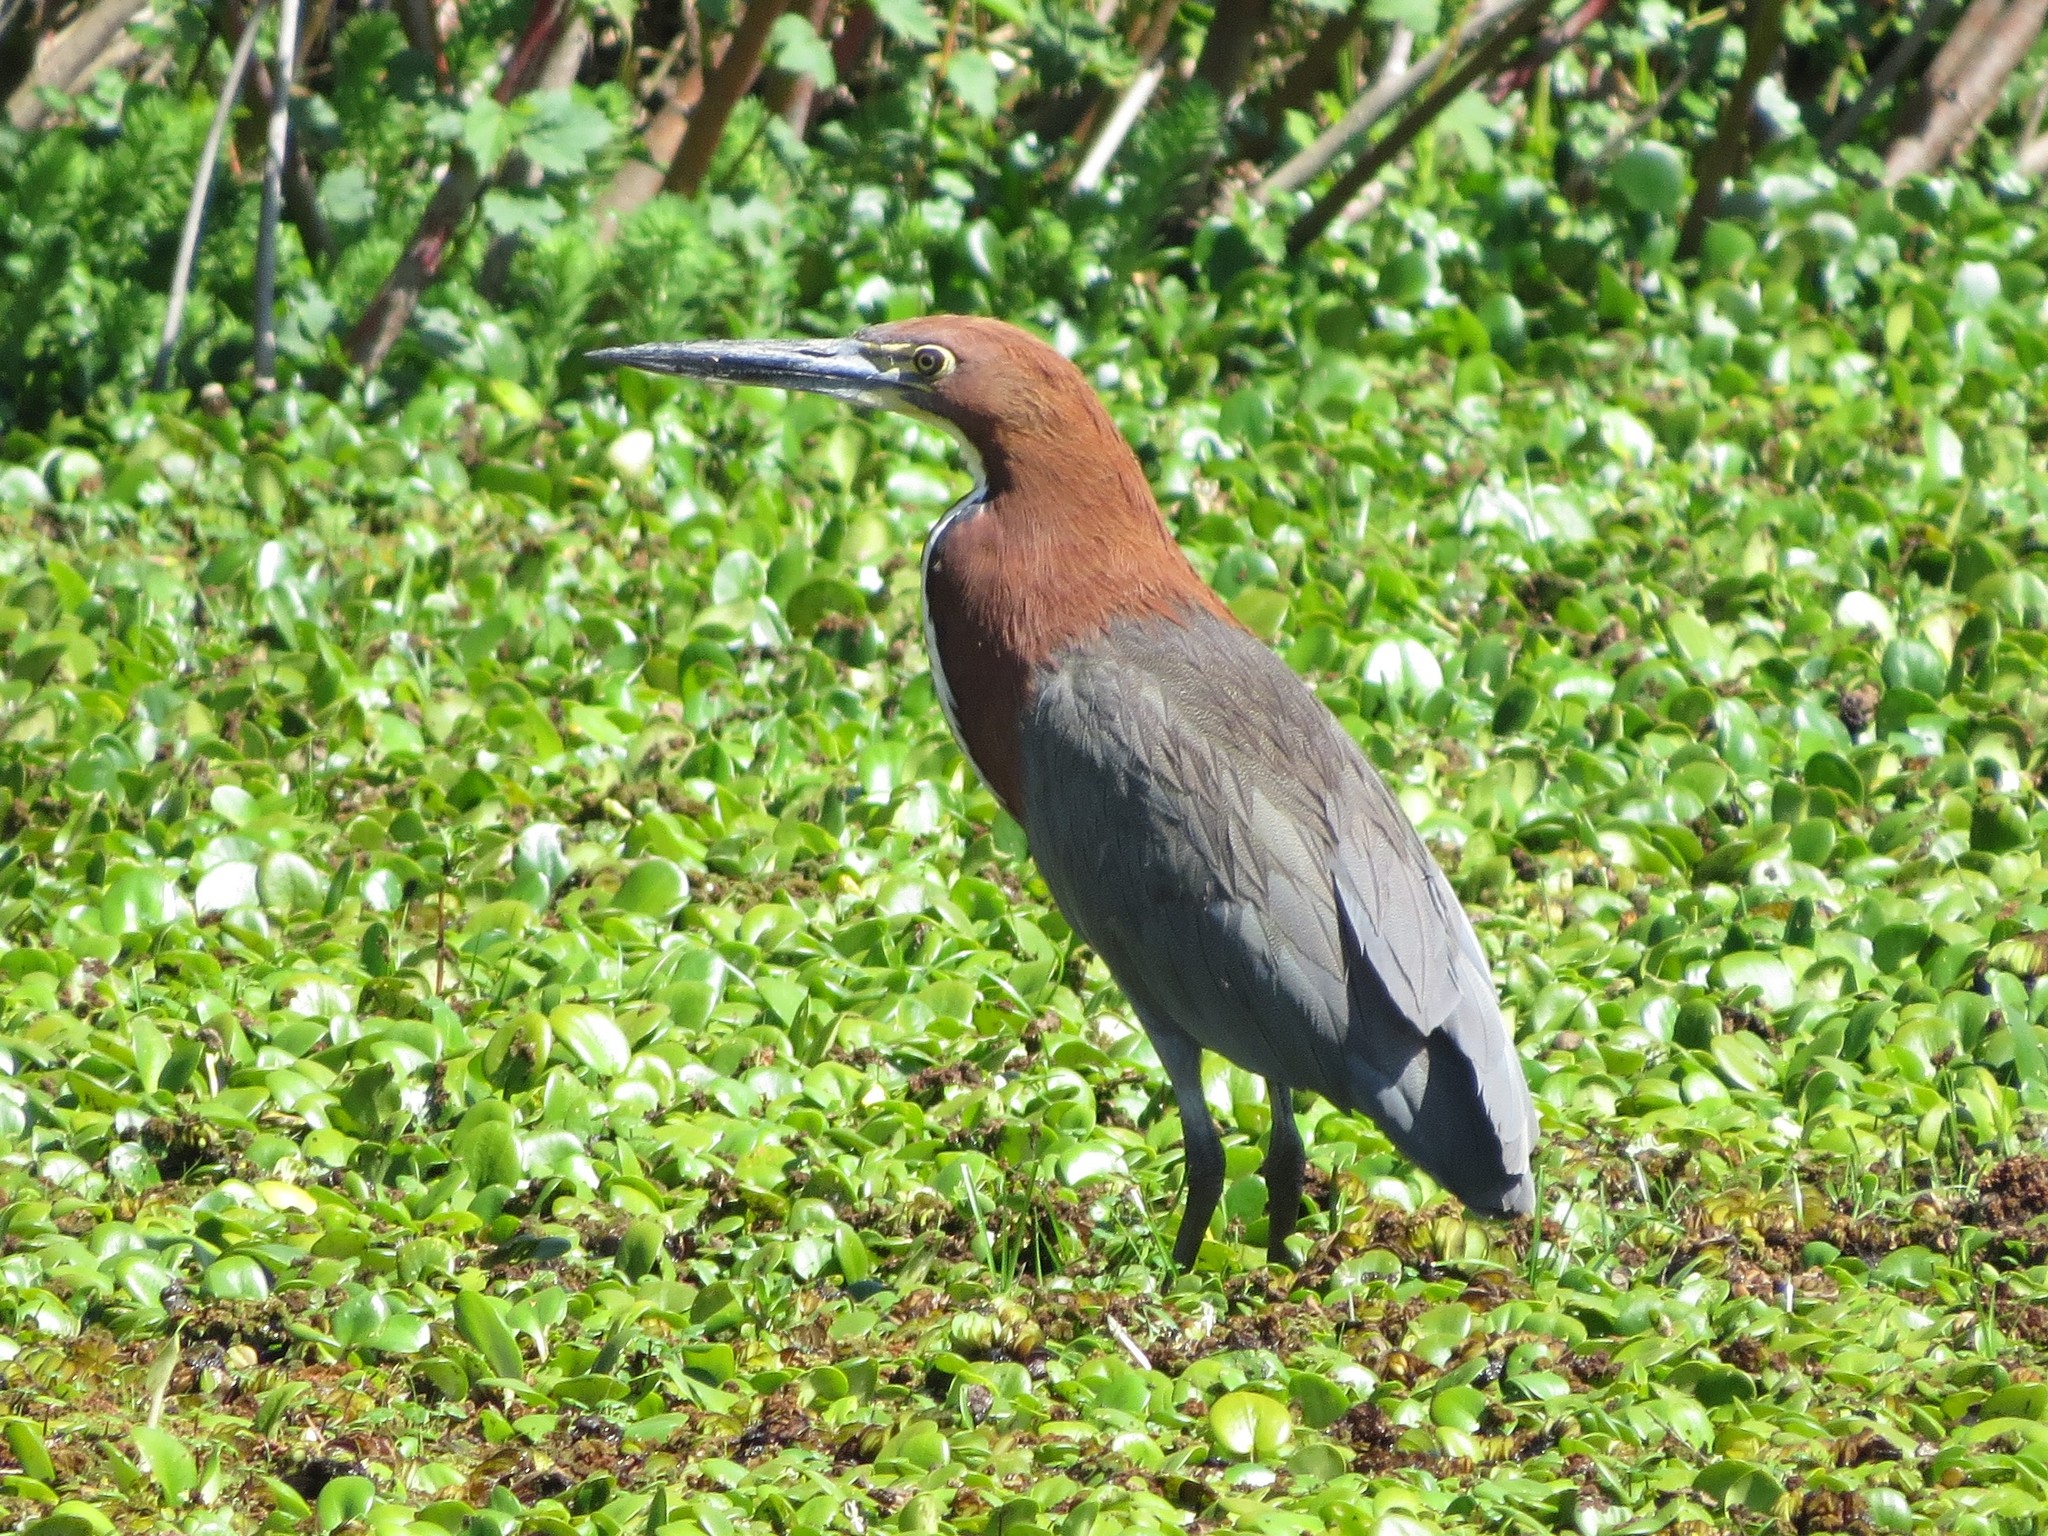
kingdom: Animalia
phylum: Chordata
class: Aves
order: Pelecaniformes
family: Ardeidae
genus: Tigrisoma
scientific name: Tigrisoma lineatum
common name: Rufescent tiger-heron
